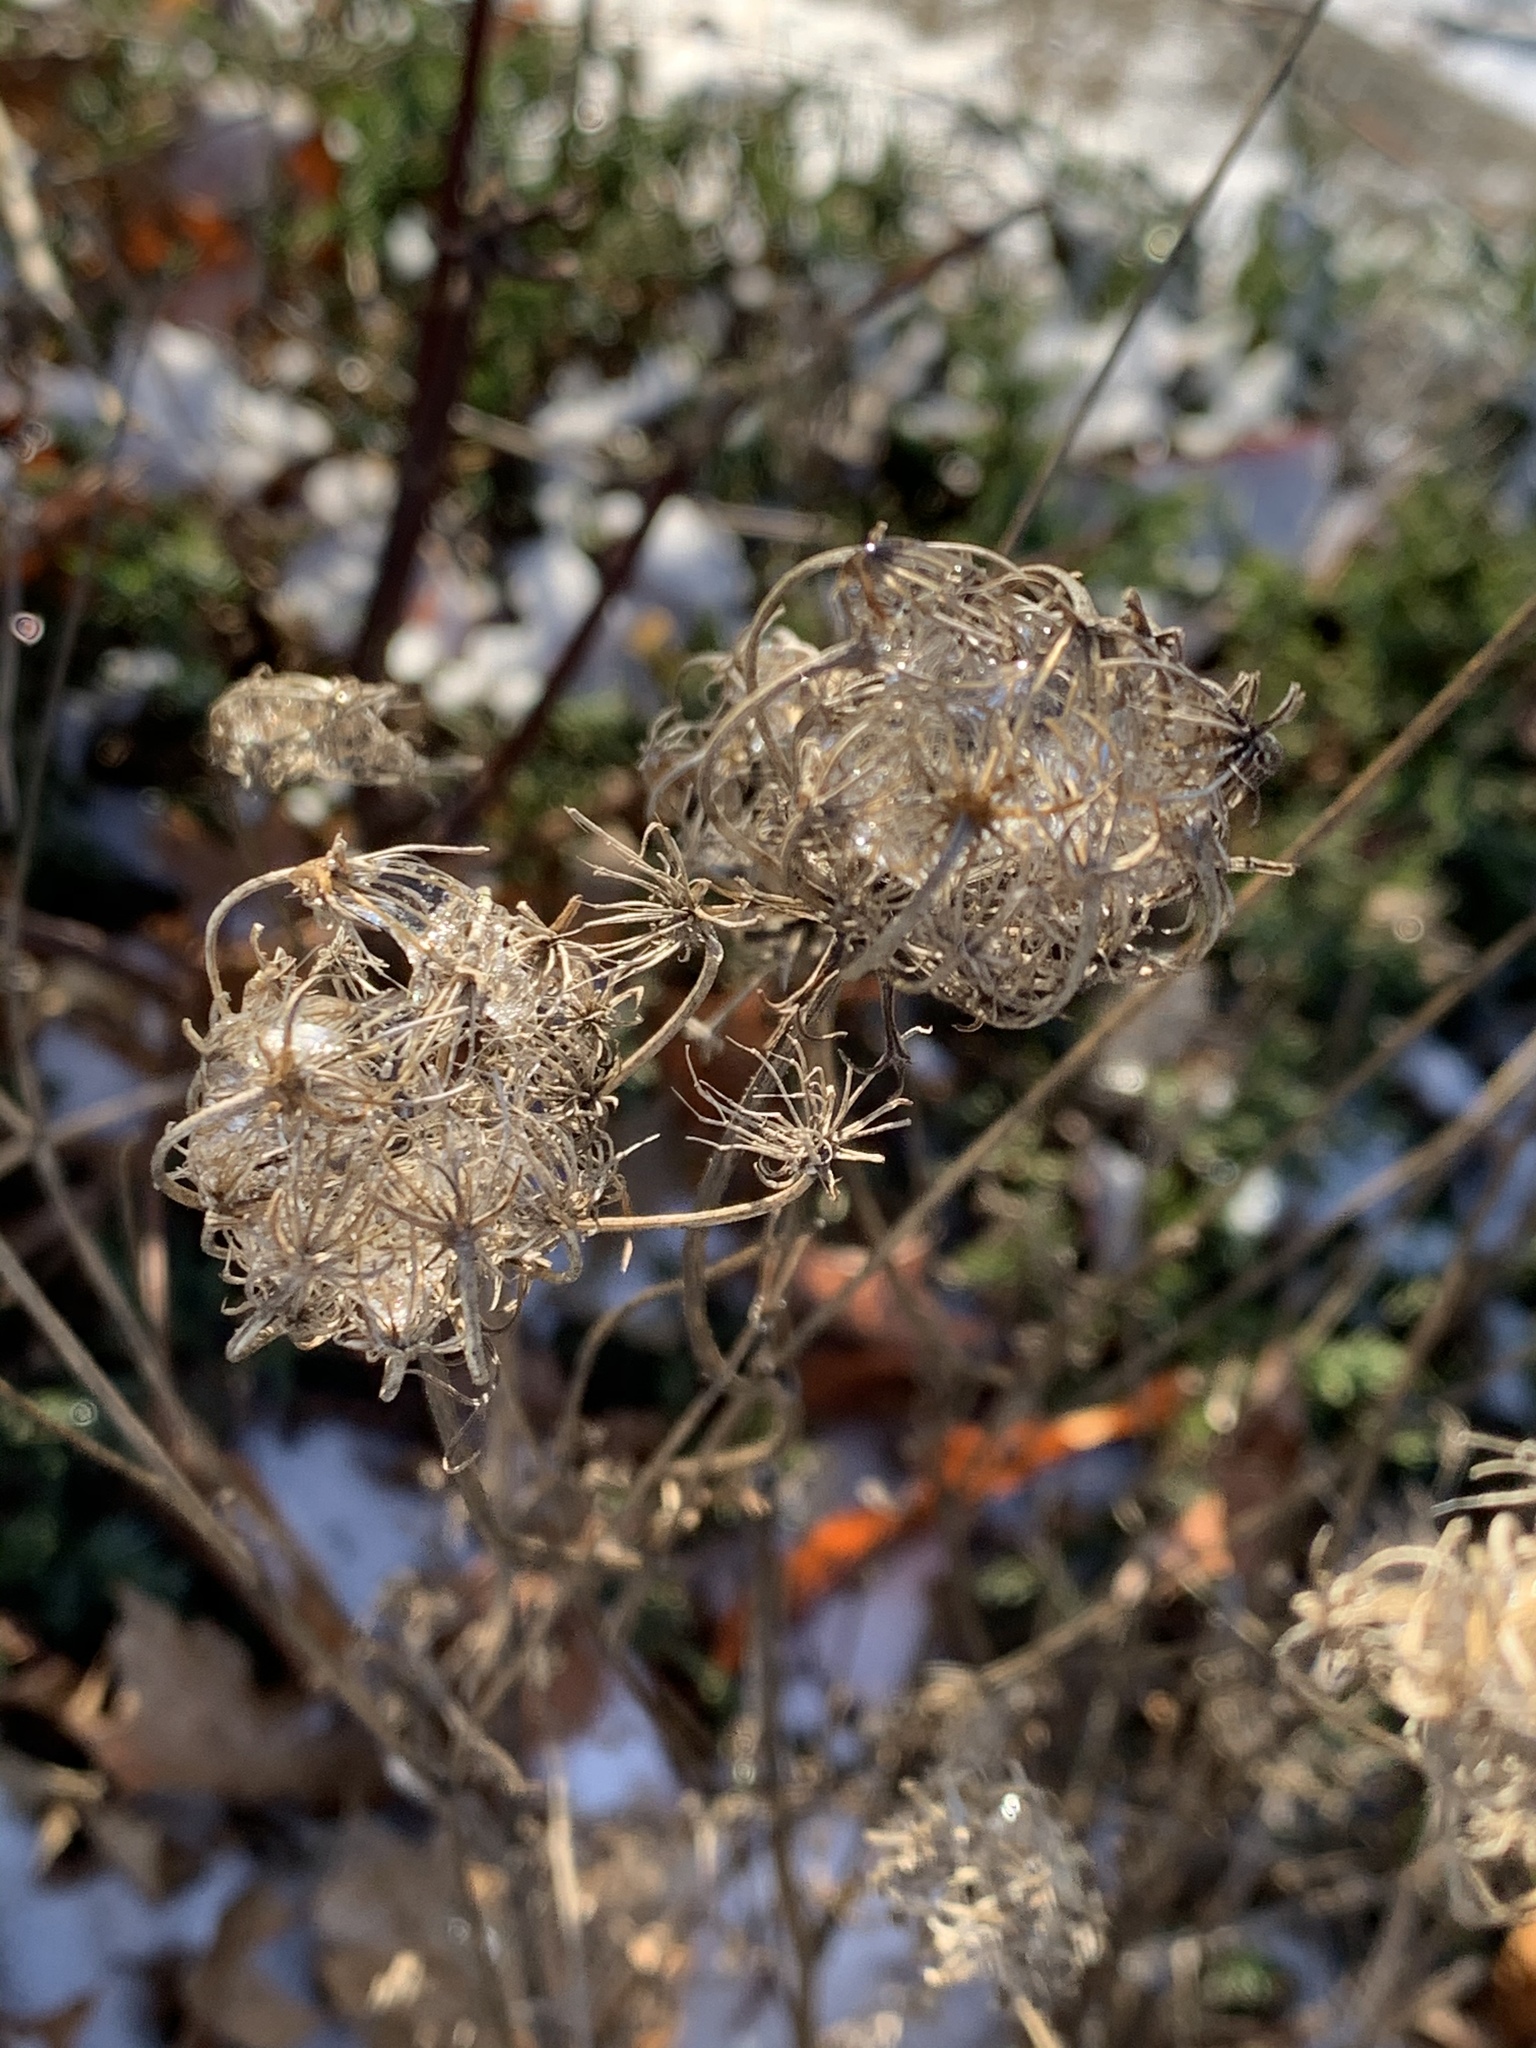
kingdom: Plantae
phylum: Tracheophyta
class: Magnoliopsida
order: Apiales
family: Apiaceae
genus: Daucus
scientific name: Daucus carota
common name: Wild carrot
